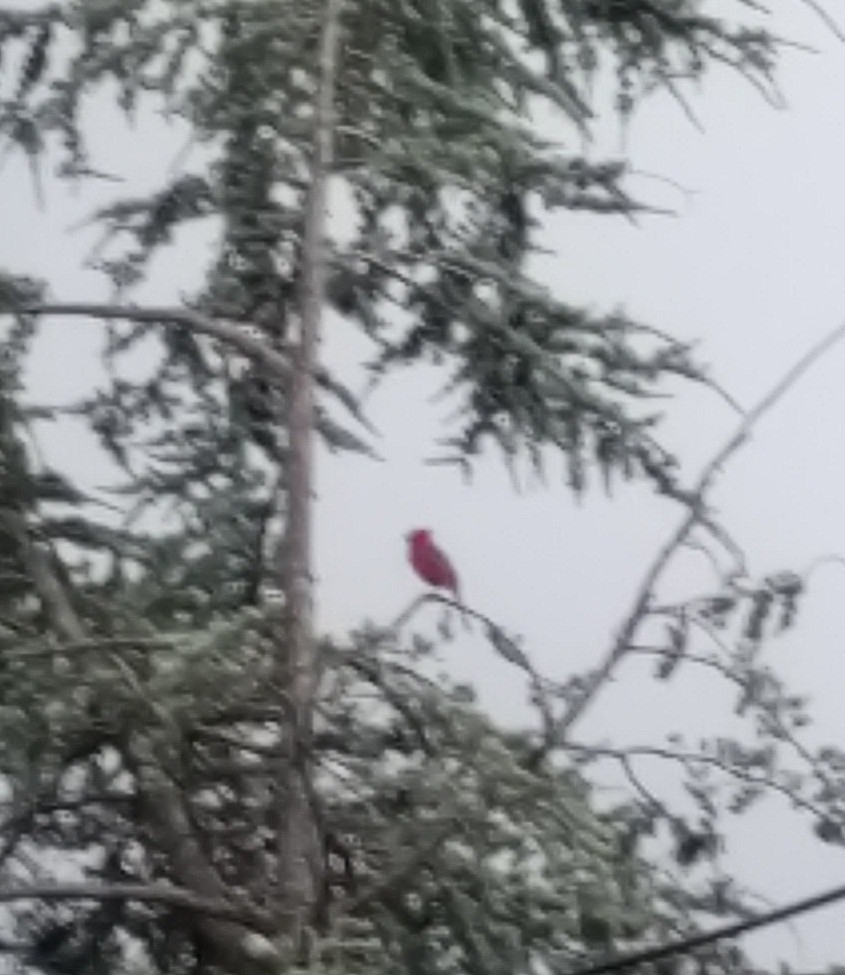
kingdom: Animalia
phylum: Chordata
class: Aves
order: Passeriformes
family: Cardinalidae
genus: Cardinalis
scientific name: Cardinalis cardinalis
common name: Northern cardinal
